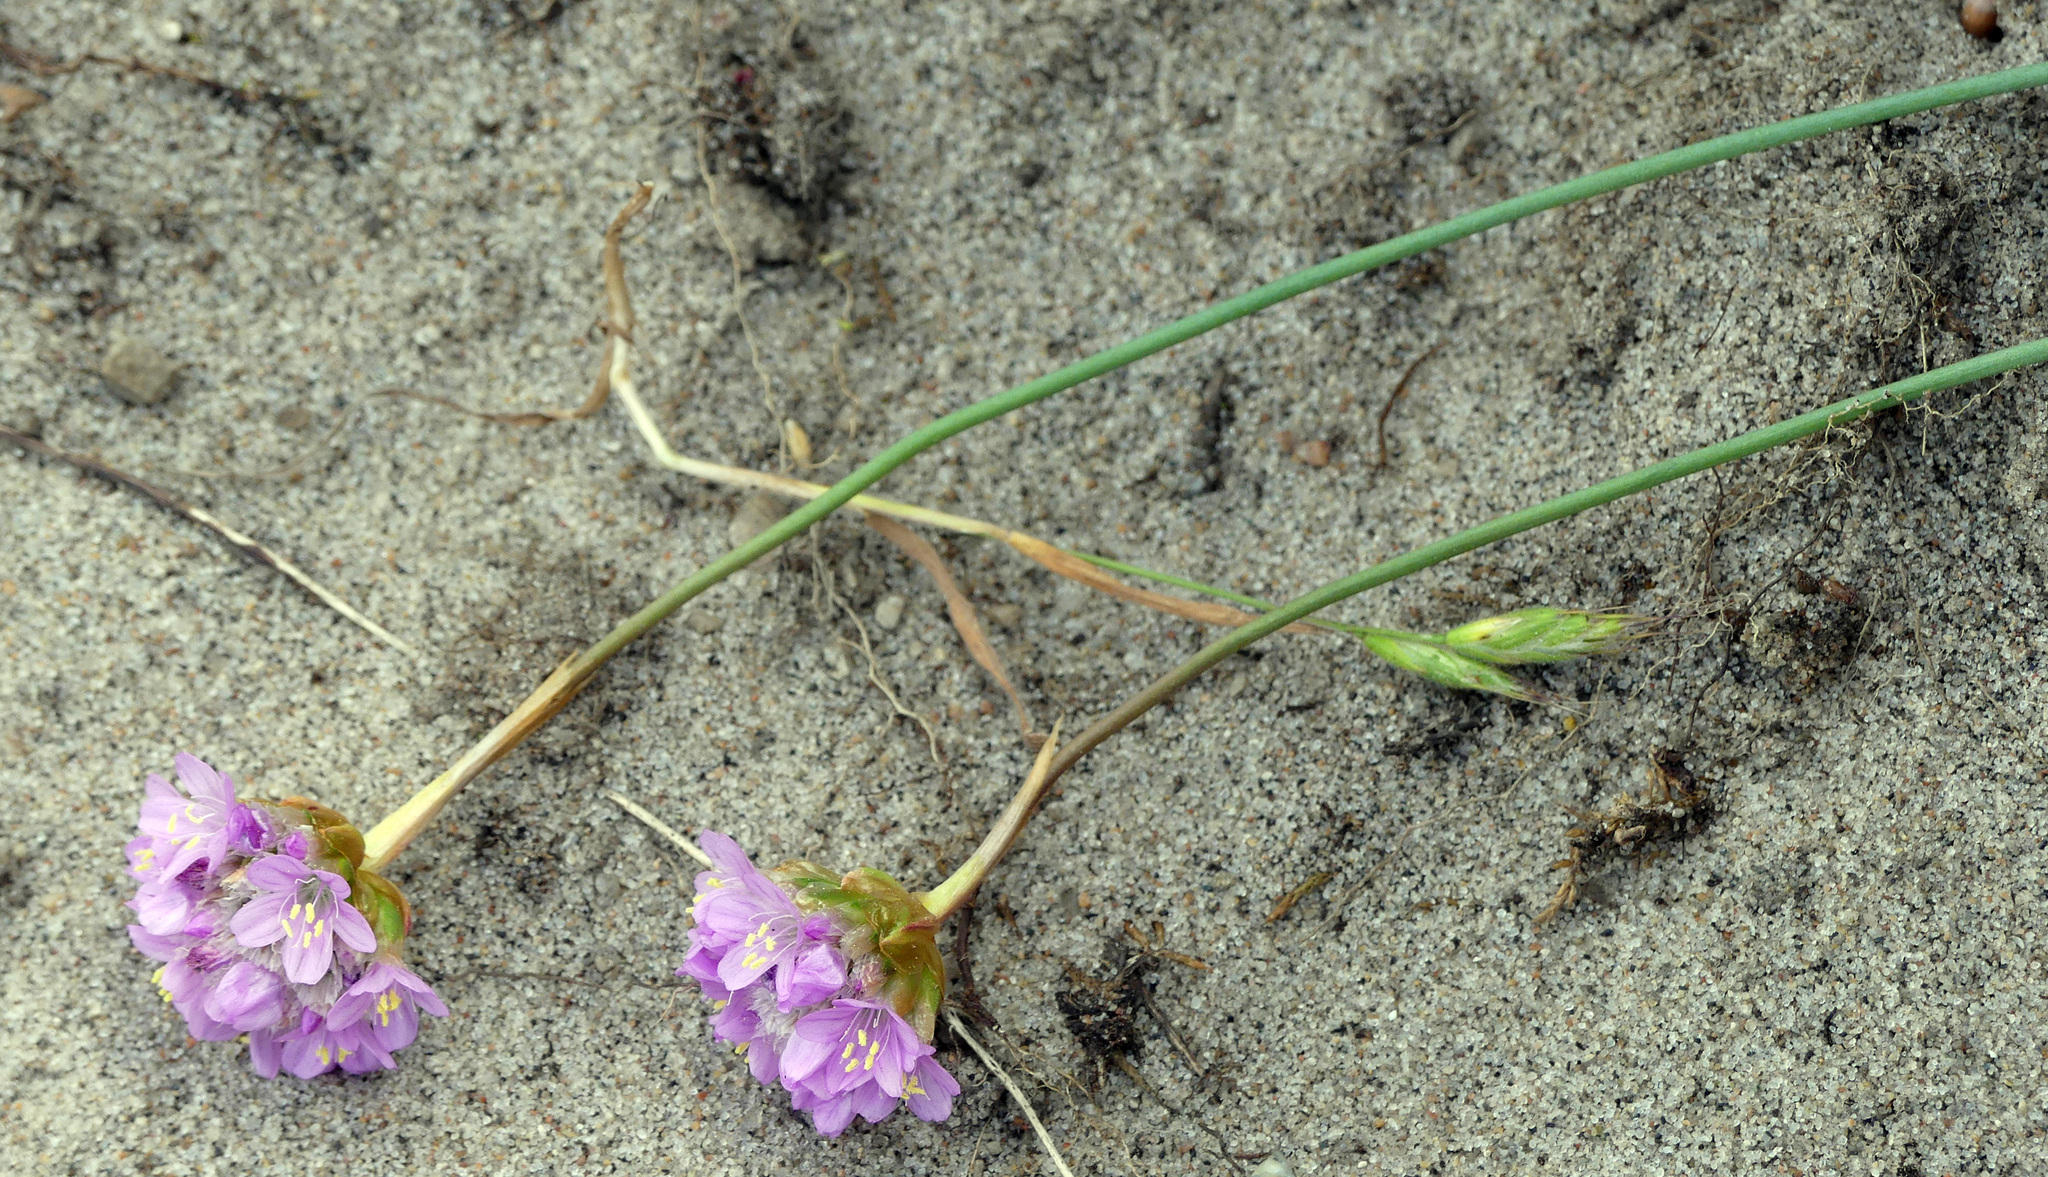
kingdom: Plantae
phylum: Tracheophyta
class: Magnoliopsida
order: Caryophyllales
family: Plumbaginaceae
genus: Armeria
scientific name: Armeria maritima
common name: Thrift
